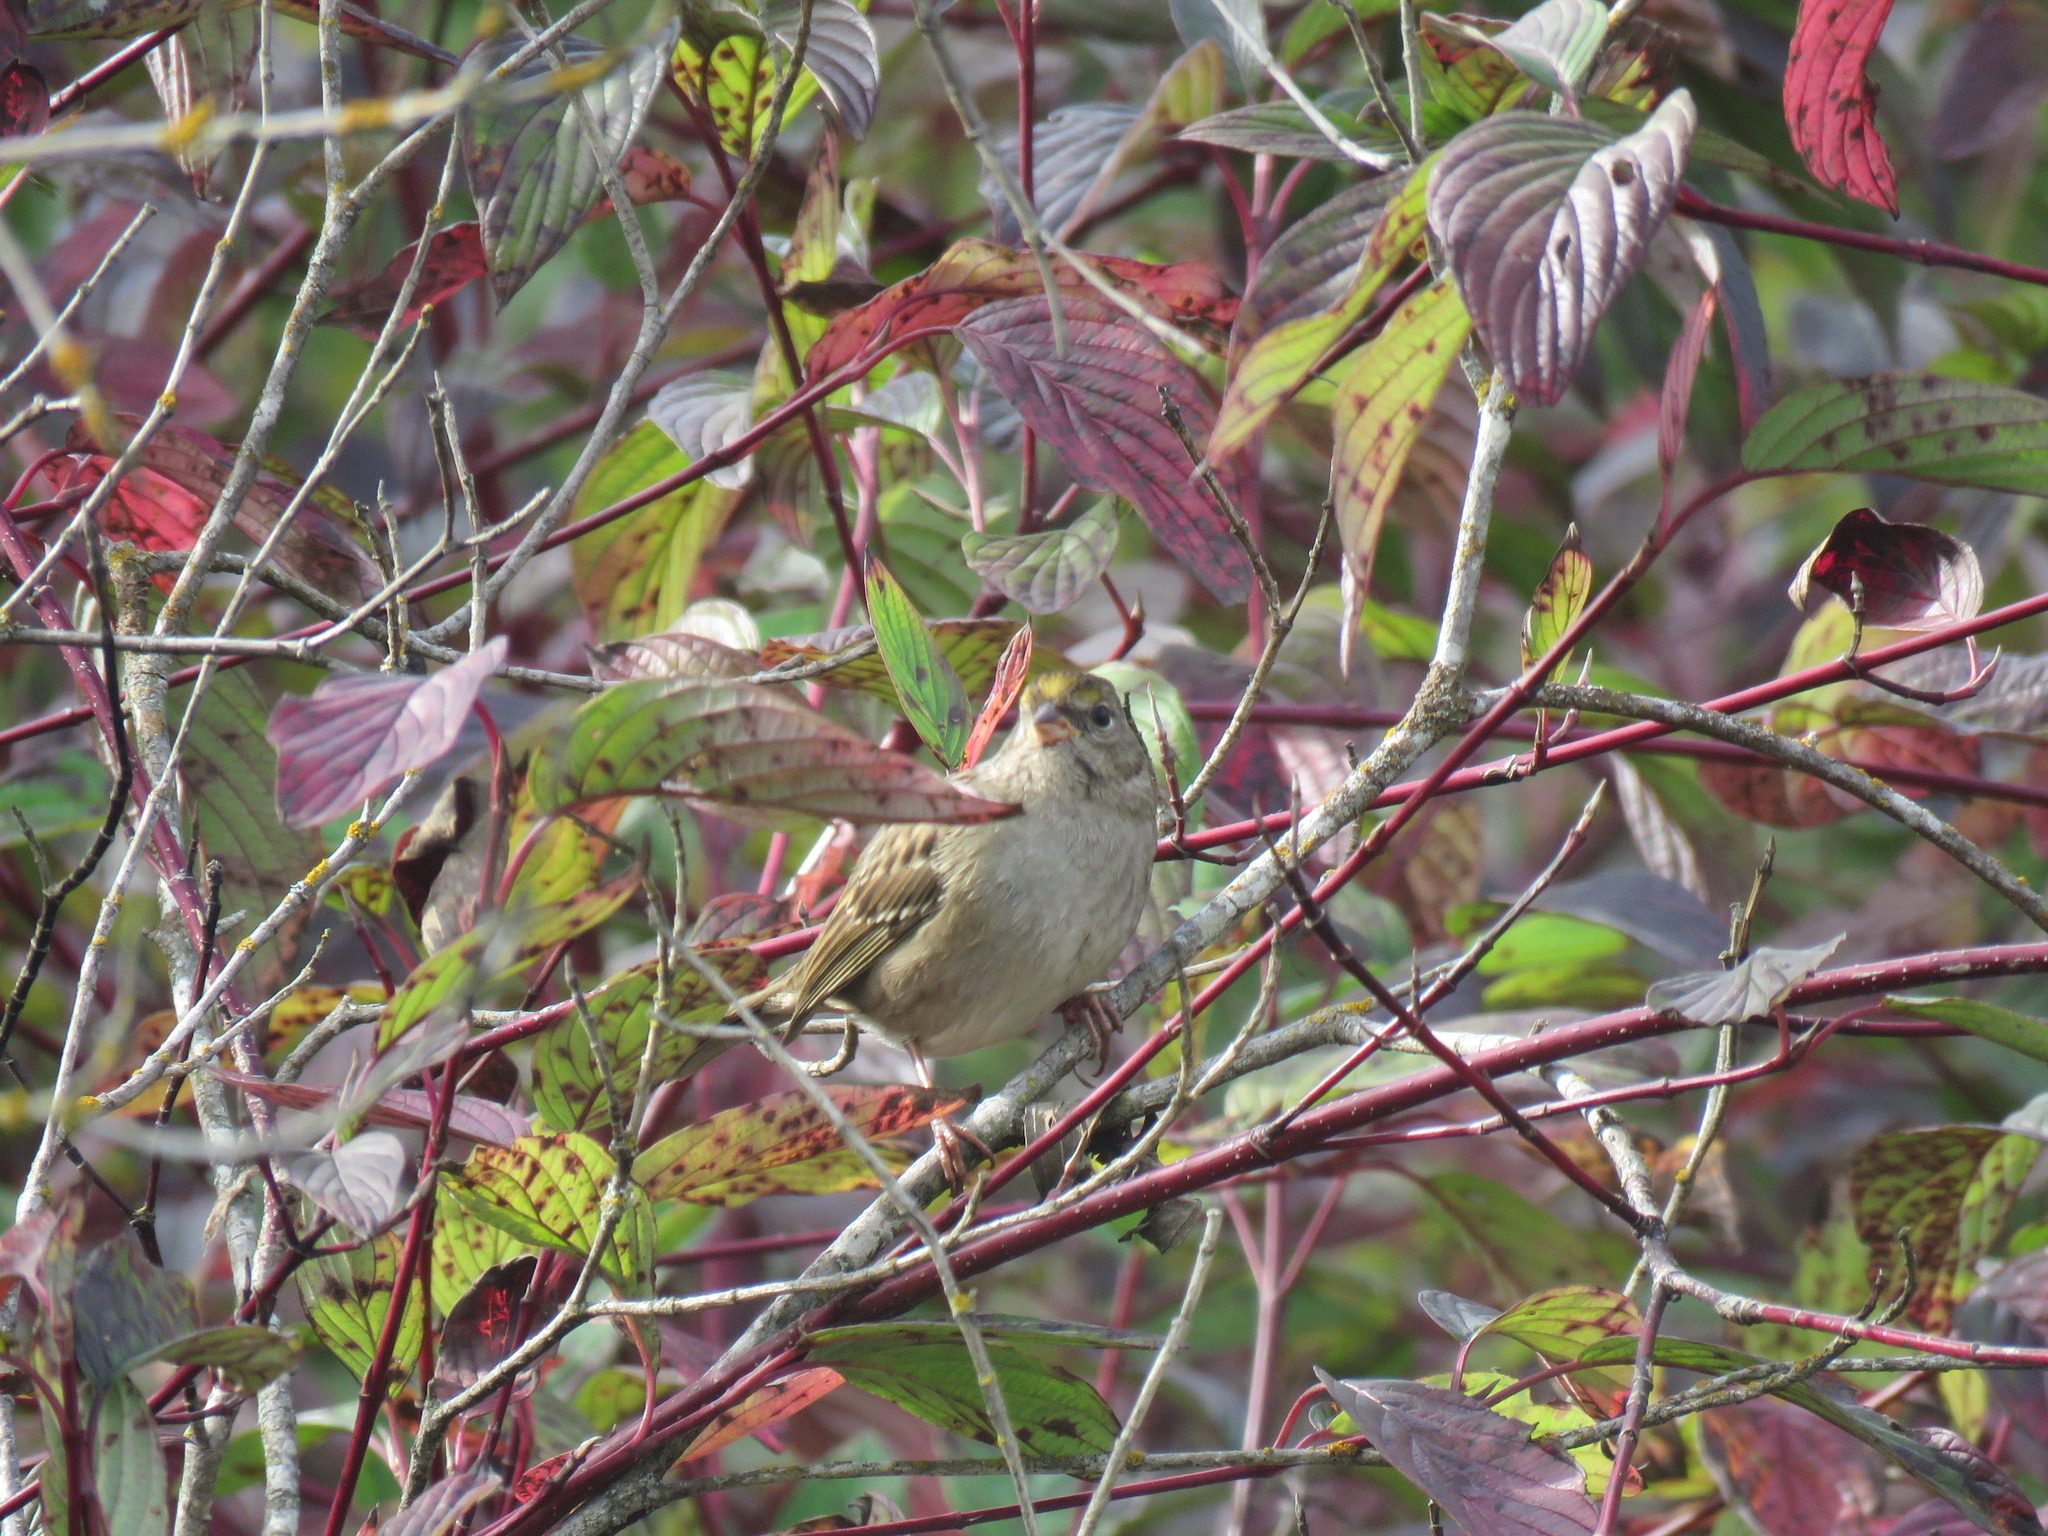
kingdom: Animalia
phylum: Chordata
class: Aves
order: Passeriformes
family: Passerellidae
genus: Zonotrichia
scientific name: Zonotrichia atricapilla
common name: Golden-crowned sparrow
